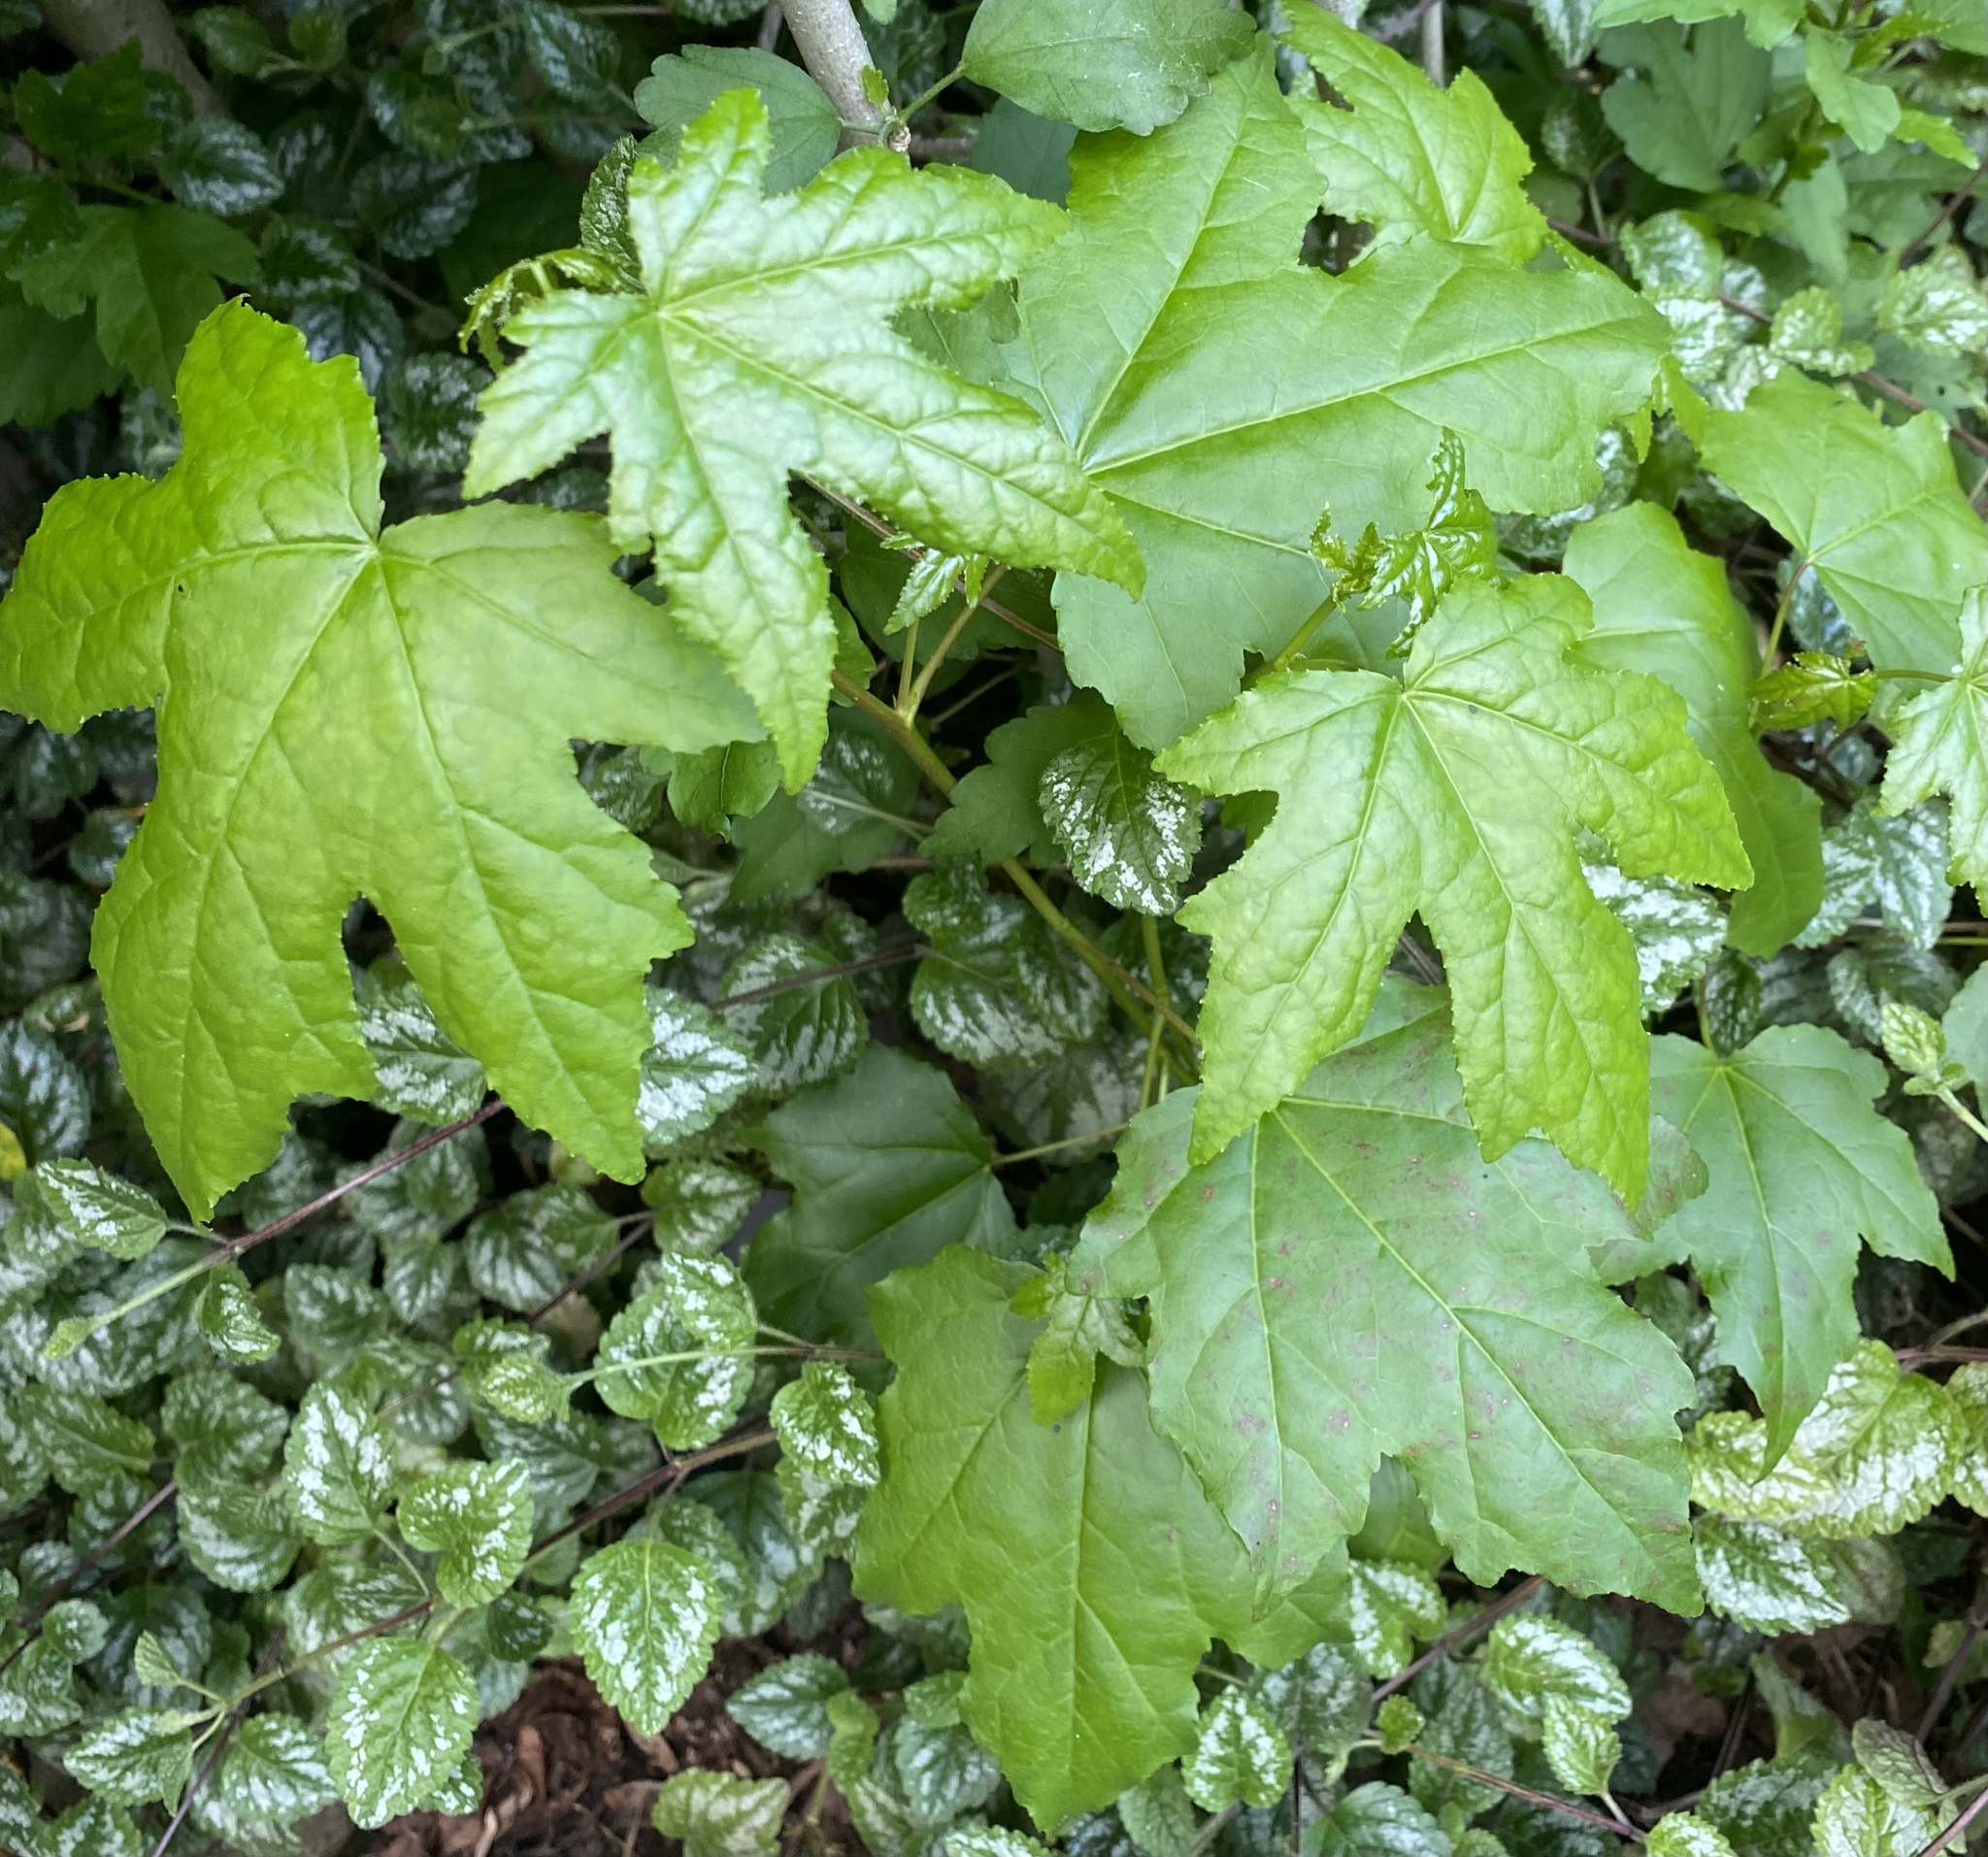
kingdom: Plantae
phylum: Tracheophyta
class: Magnoliopsida
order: Saxifragales
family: Altingiaceae
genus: Liquidambar
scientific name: Liquidambar styraciflua
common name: Sweet gum
